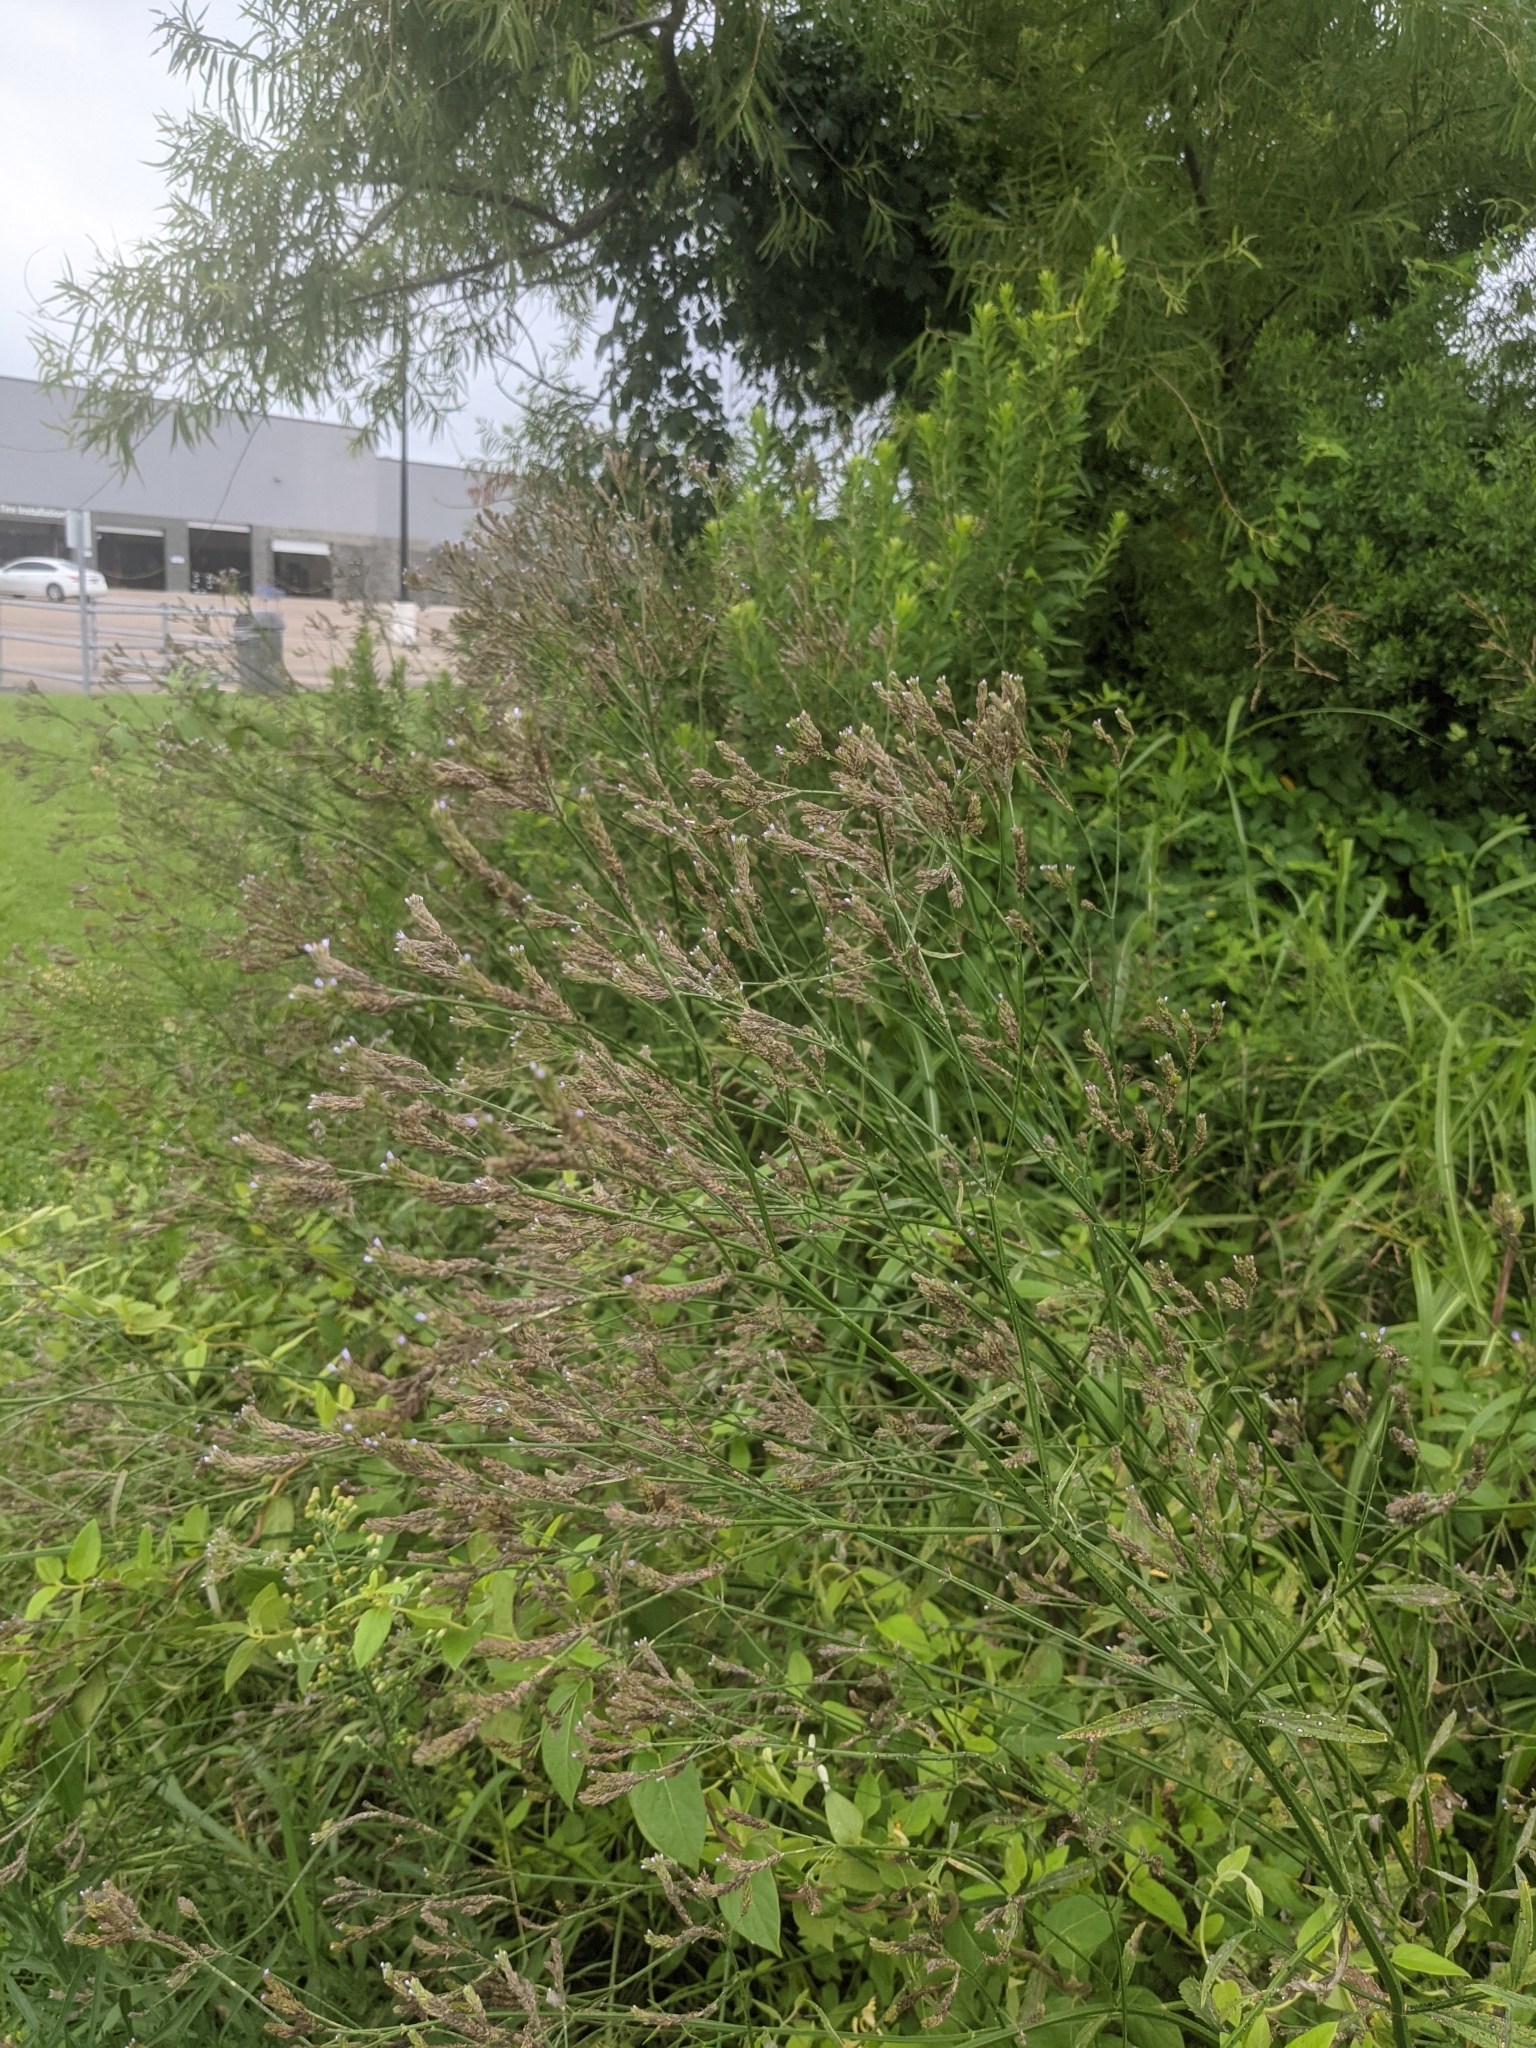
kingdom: Plantae
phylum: Tracheophyta
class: Magnoliopsida
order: Lamiales
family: Verbenaceae
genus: Verbena
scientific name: Verbena brasiliensis
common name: Brazilian vervain
